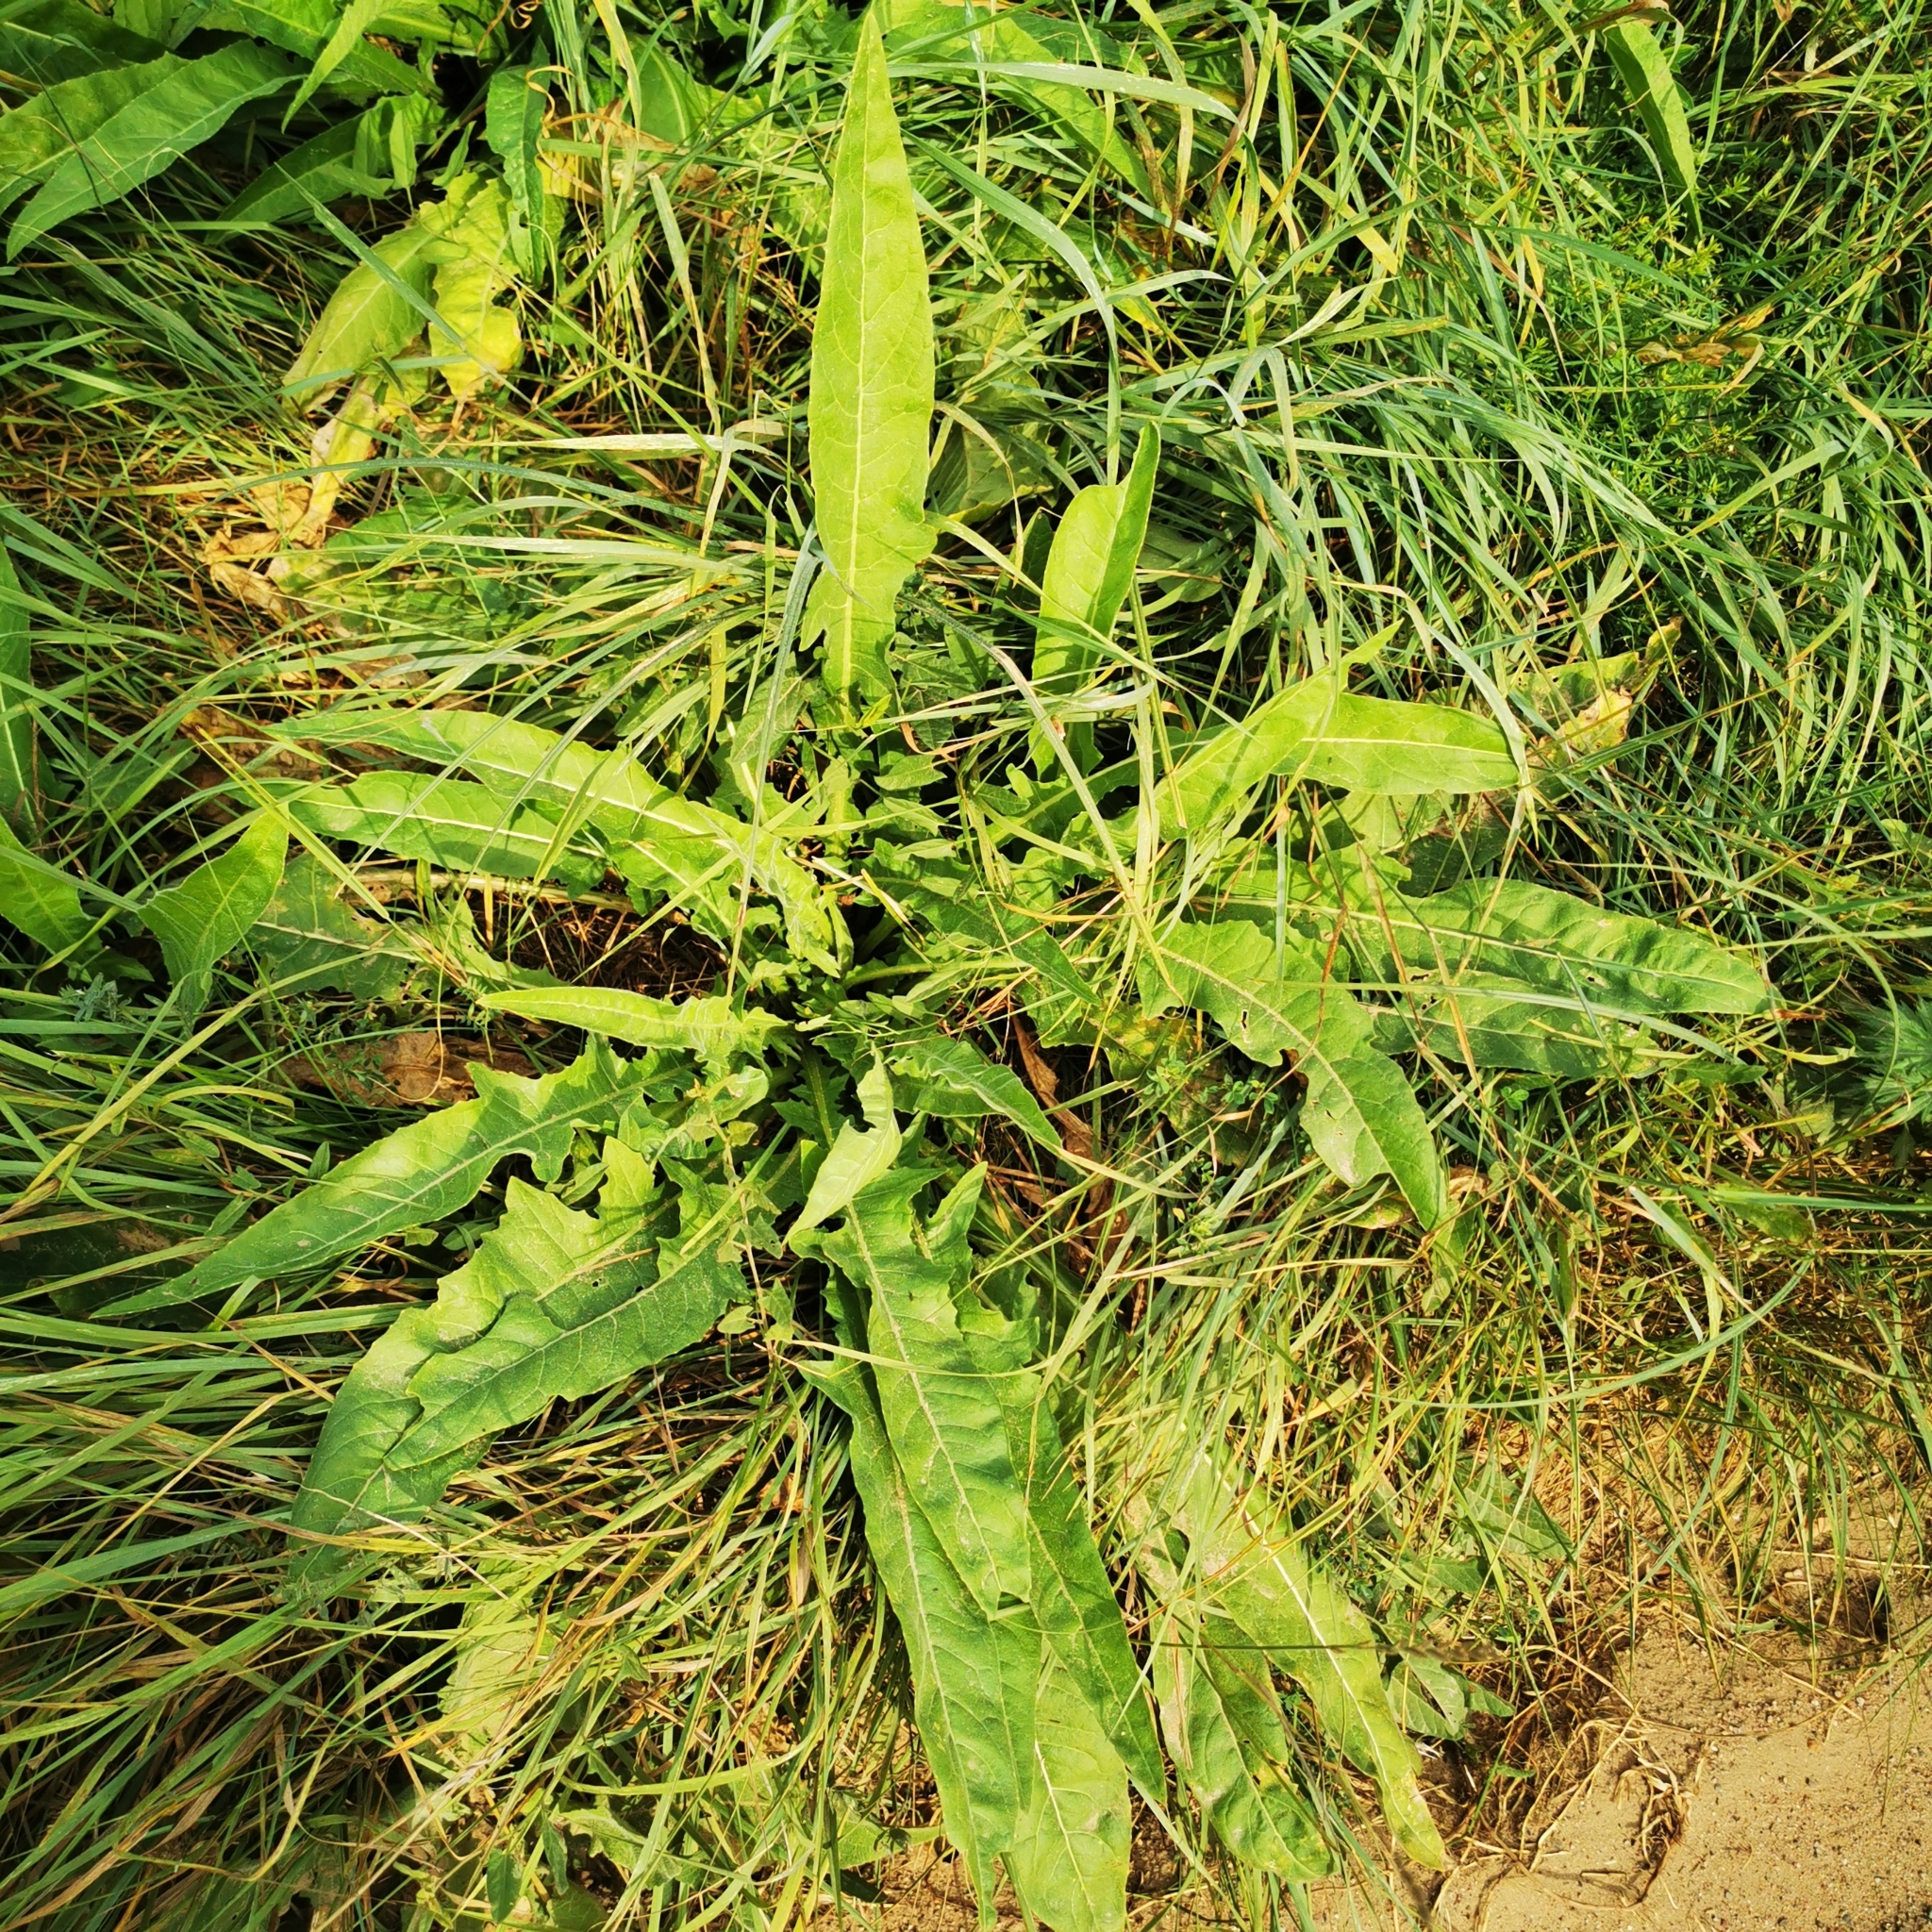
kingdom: Plantae
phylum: Tracheophyta
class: Magnoliopsida
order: Brassicales
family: Brassicaceae
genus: Bunias
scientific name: Bunias orientalis
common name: Warty-cabbage
